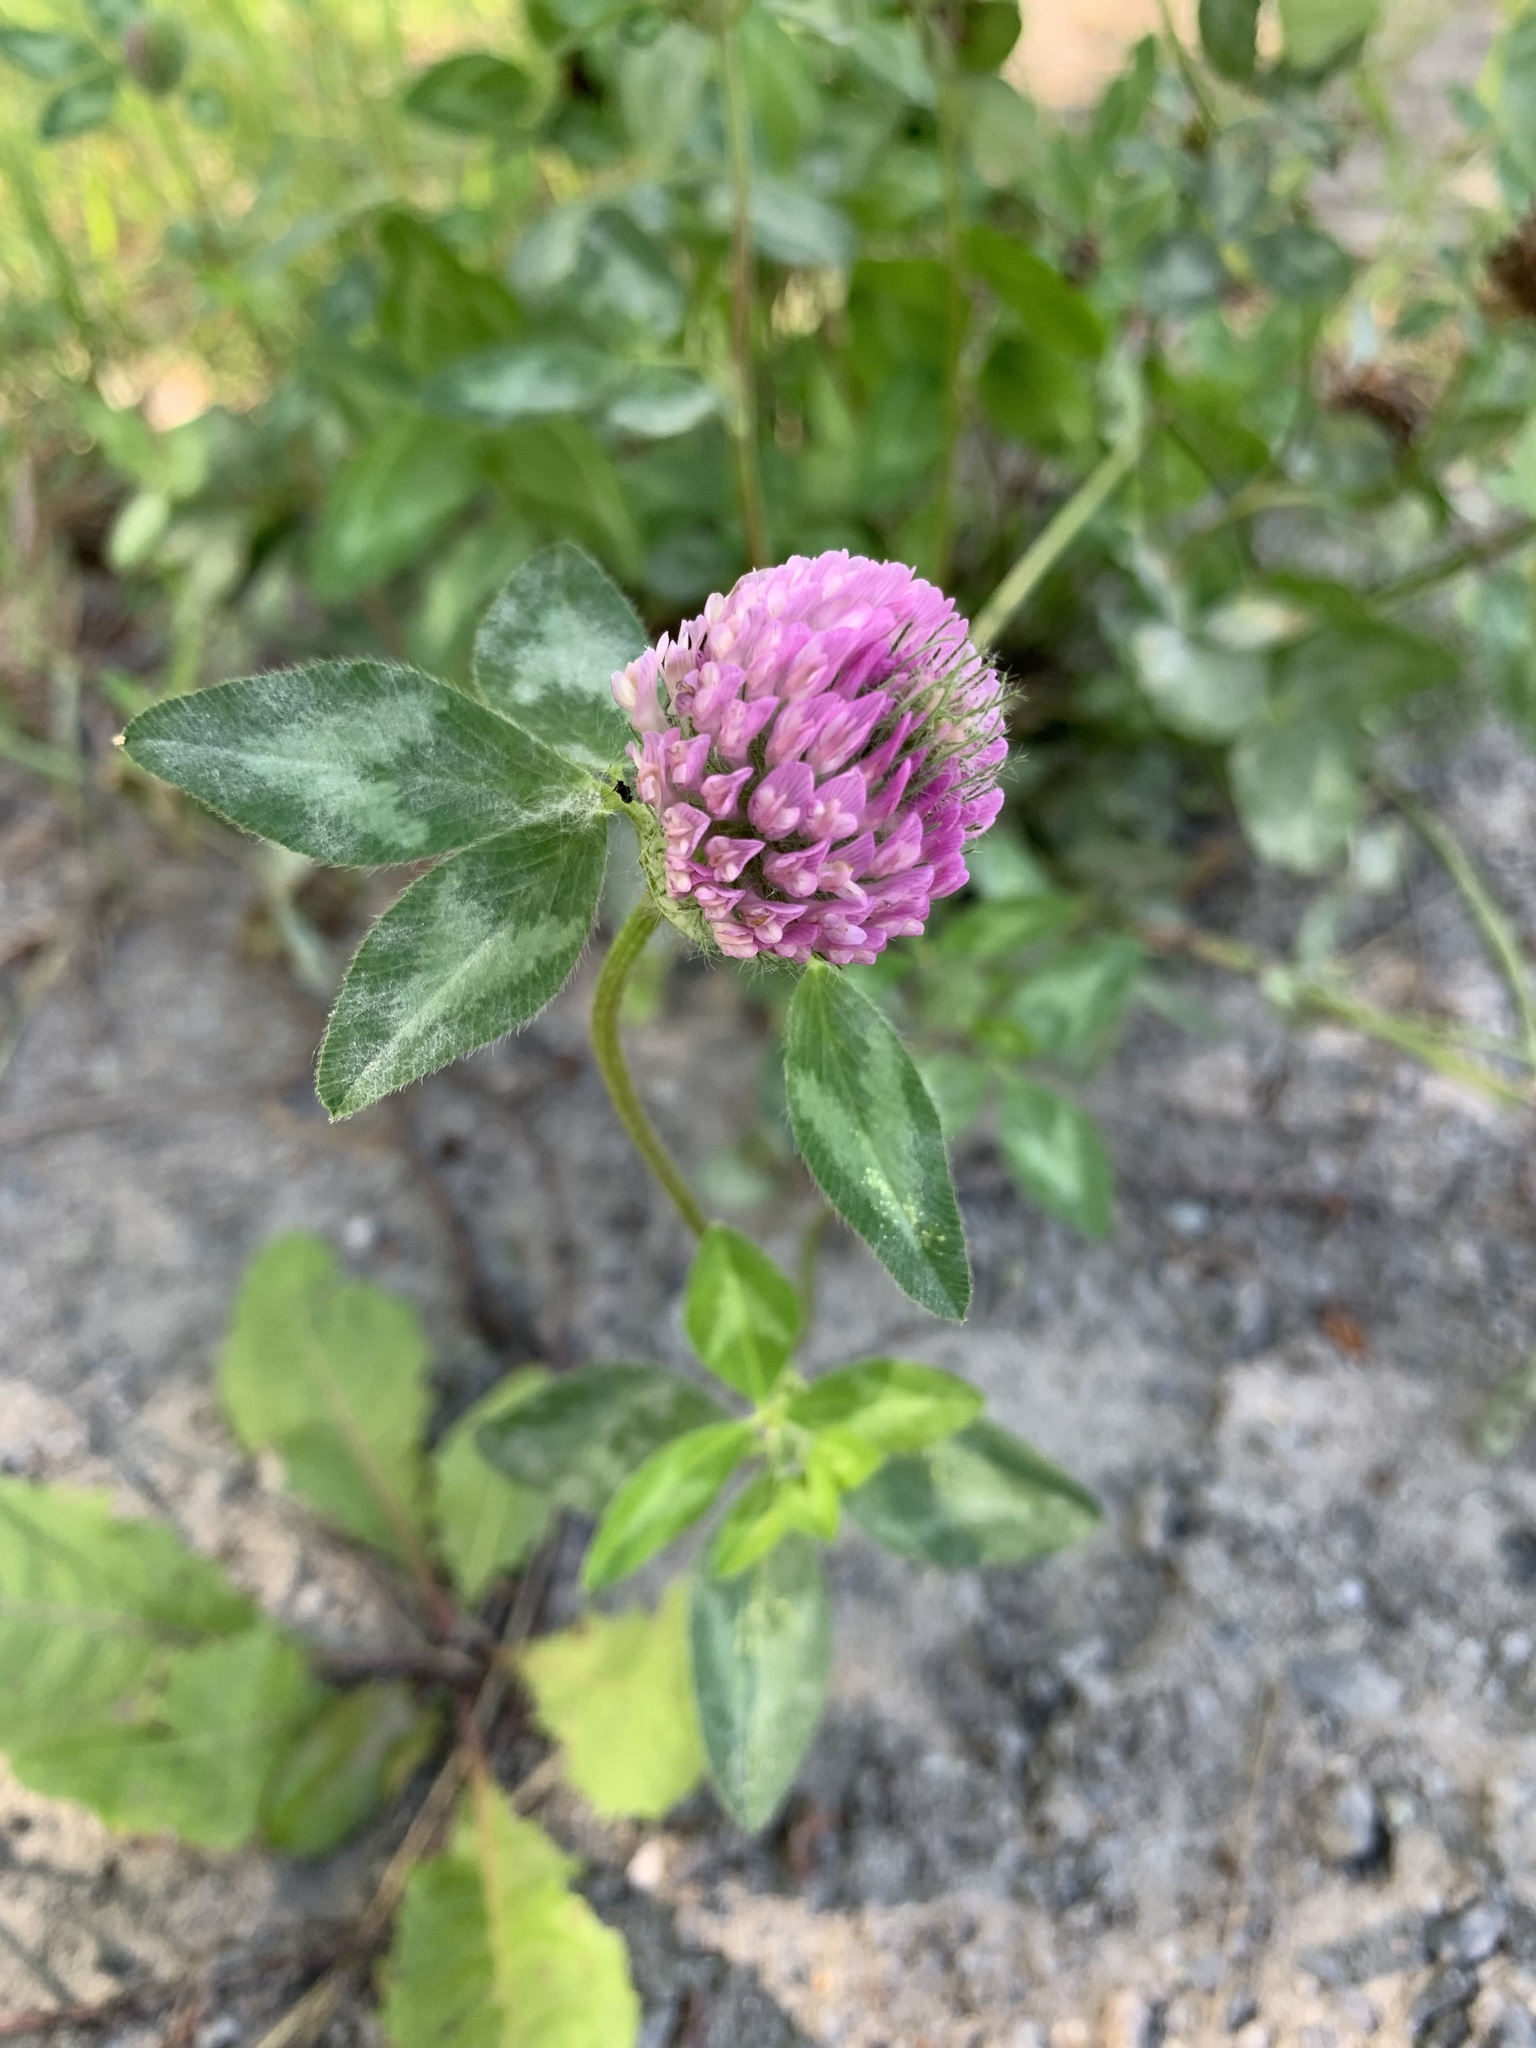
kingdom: Plantae
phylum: Tracheophyta
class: Magnoliopsida
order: Fabales
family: Fabaceae
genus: Trifolium
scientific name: Trifolium pratense
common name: Red clover
